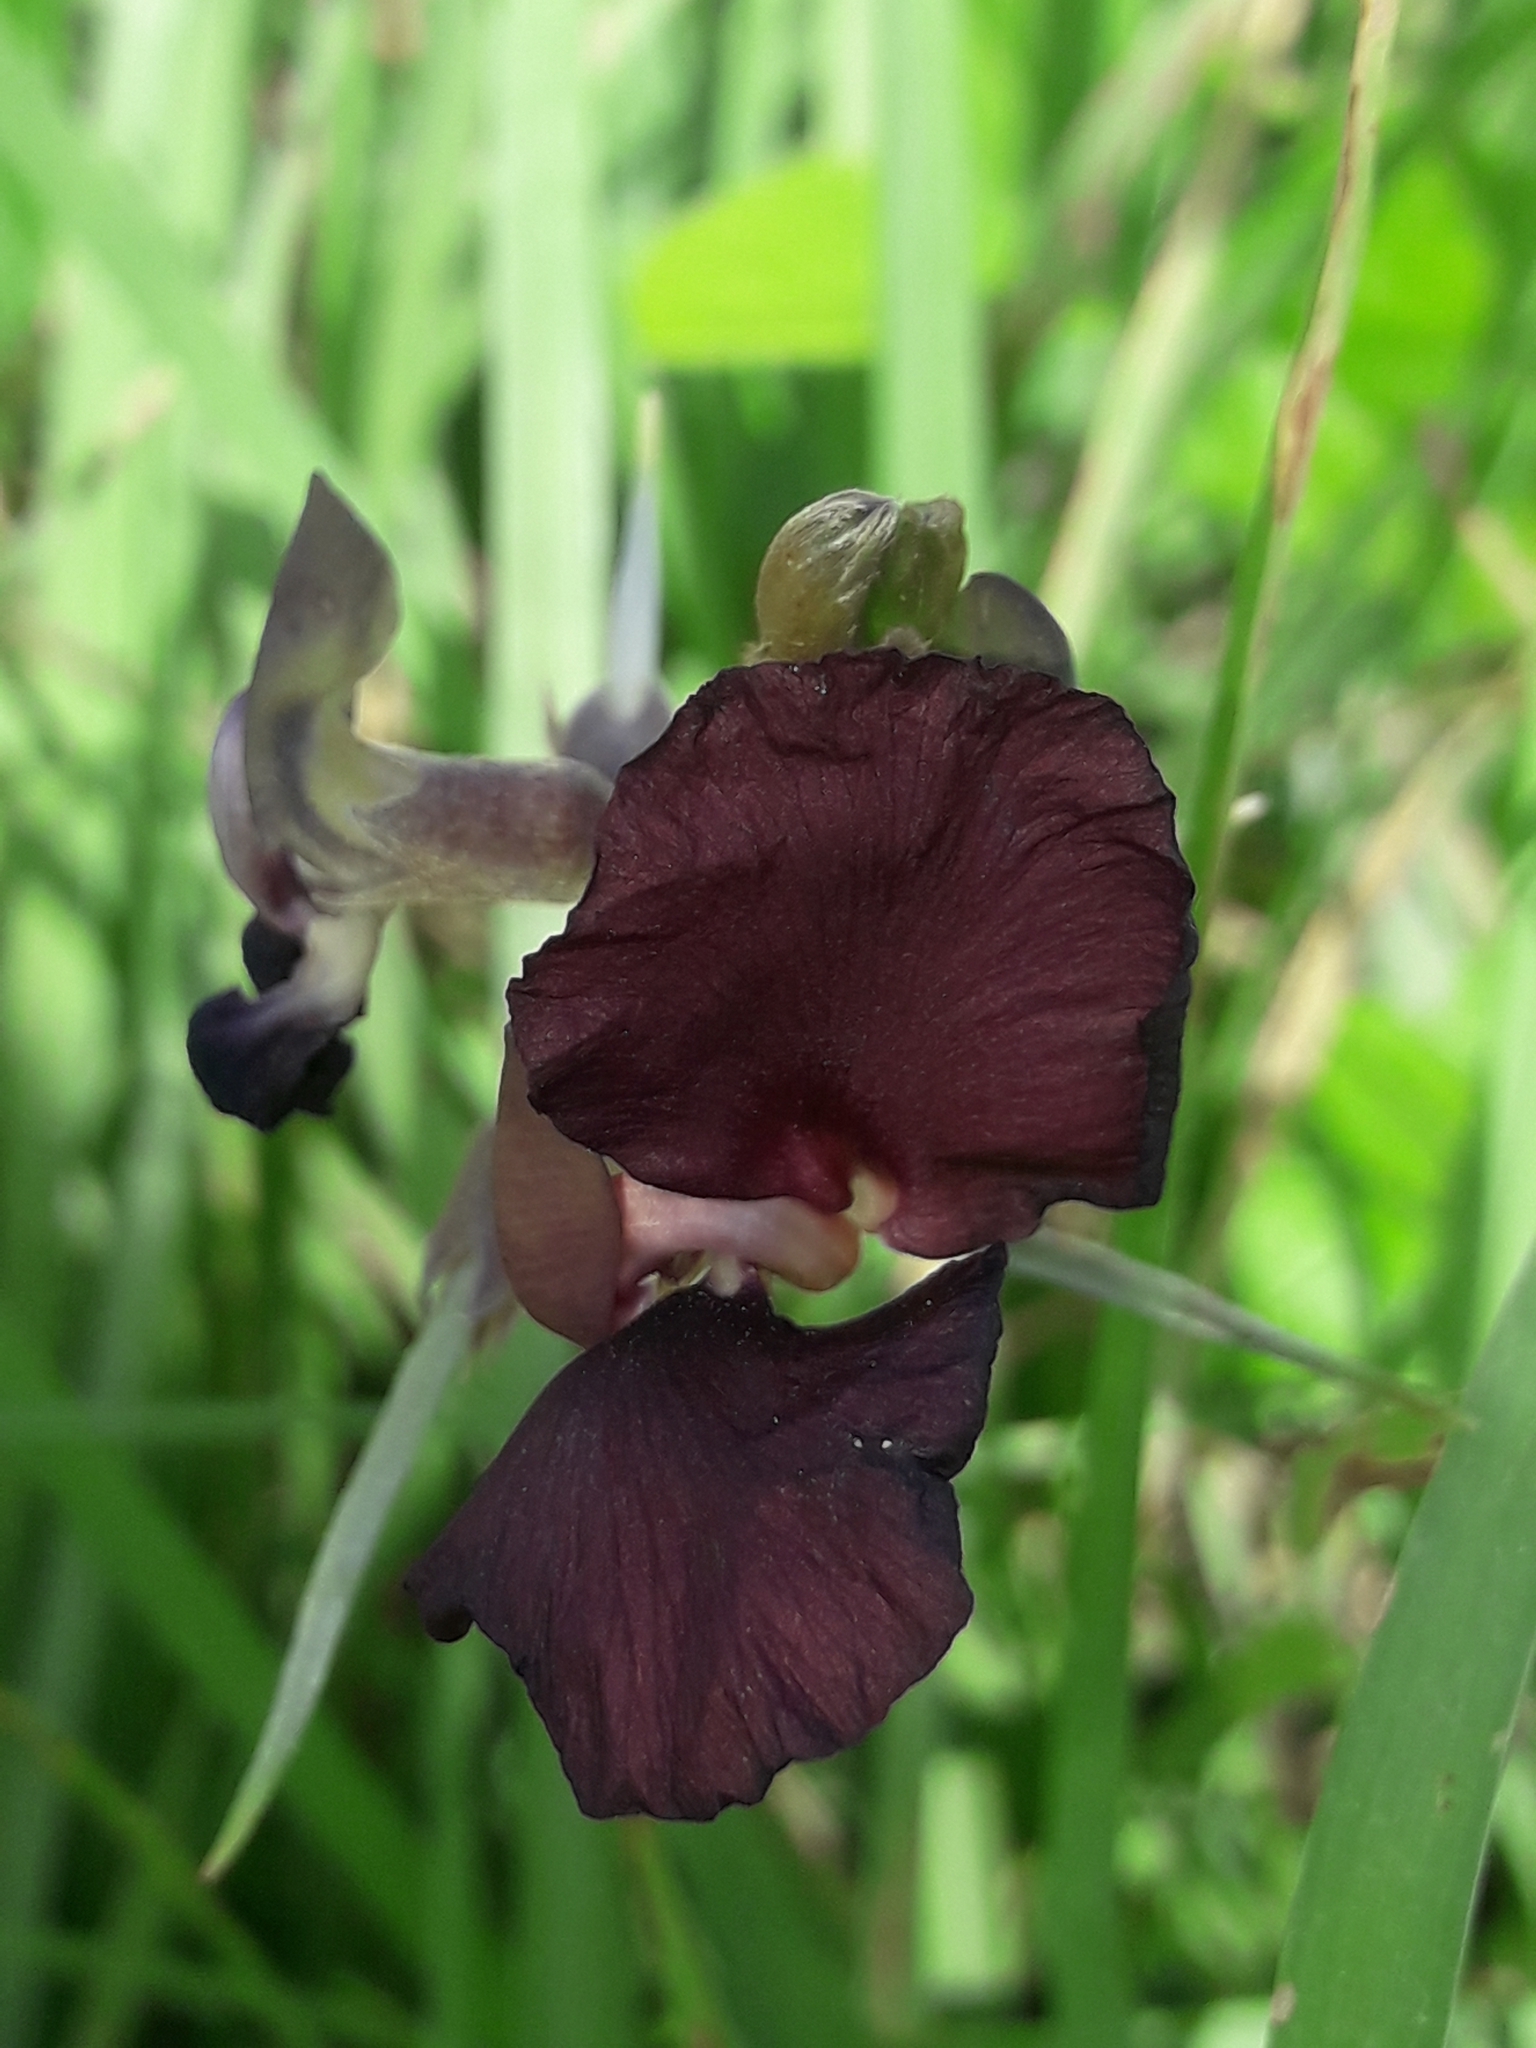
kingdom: Plantae
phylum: Tracheophyta
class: Magnoliopsida
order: Fabales
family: Fabaceae
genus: Macroptilium
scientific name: Macroptilium atropurpureum
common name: Purple bushbean
